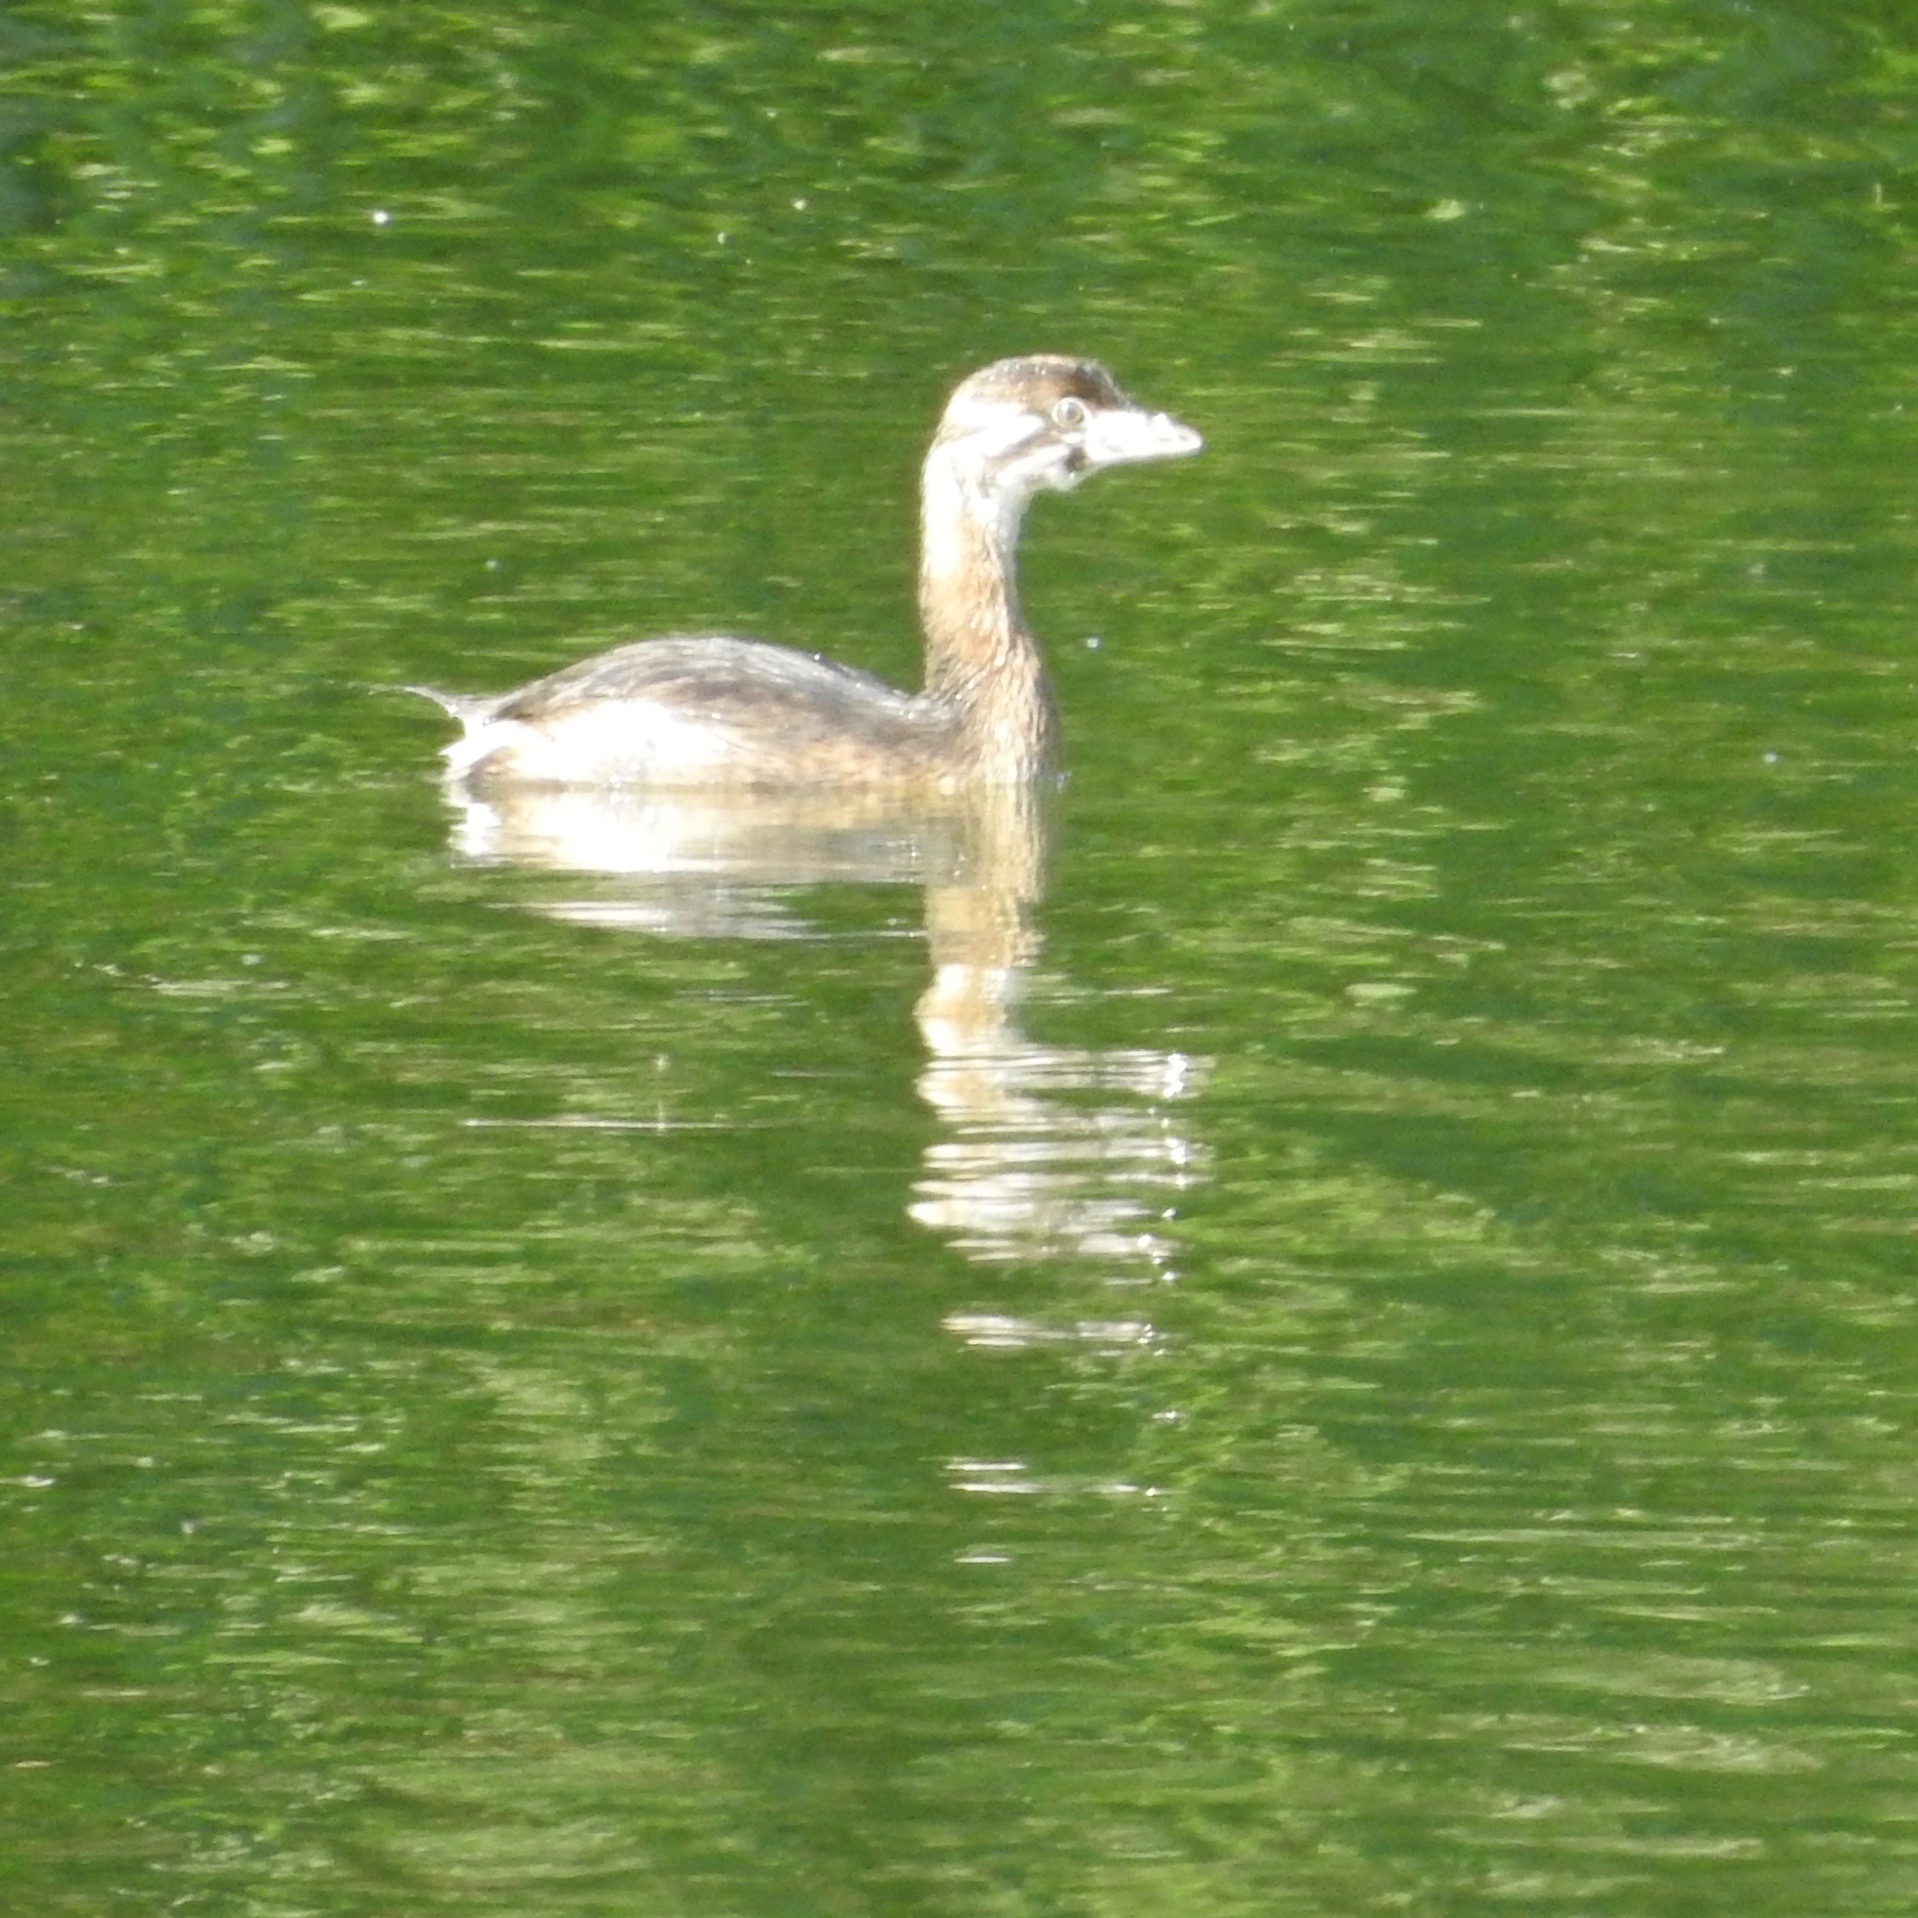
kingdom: Animalia
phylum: Chordata
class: Aves
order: Podicipediformes
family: Podicipedidae
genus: Podilymbus
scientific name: Podilymbus podiceps
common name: Pied-billed grebe
